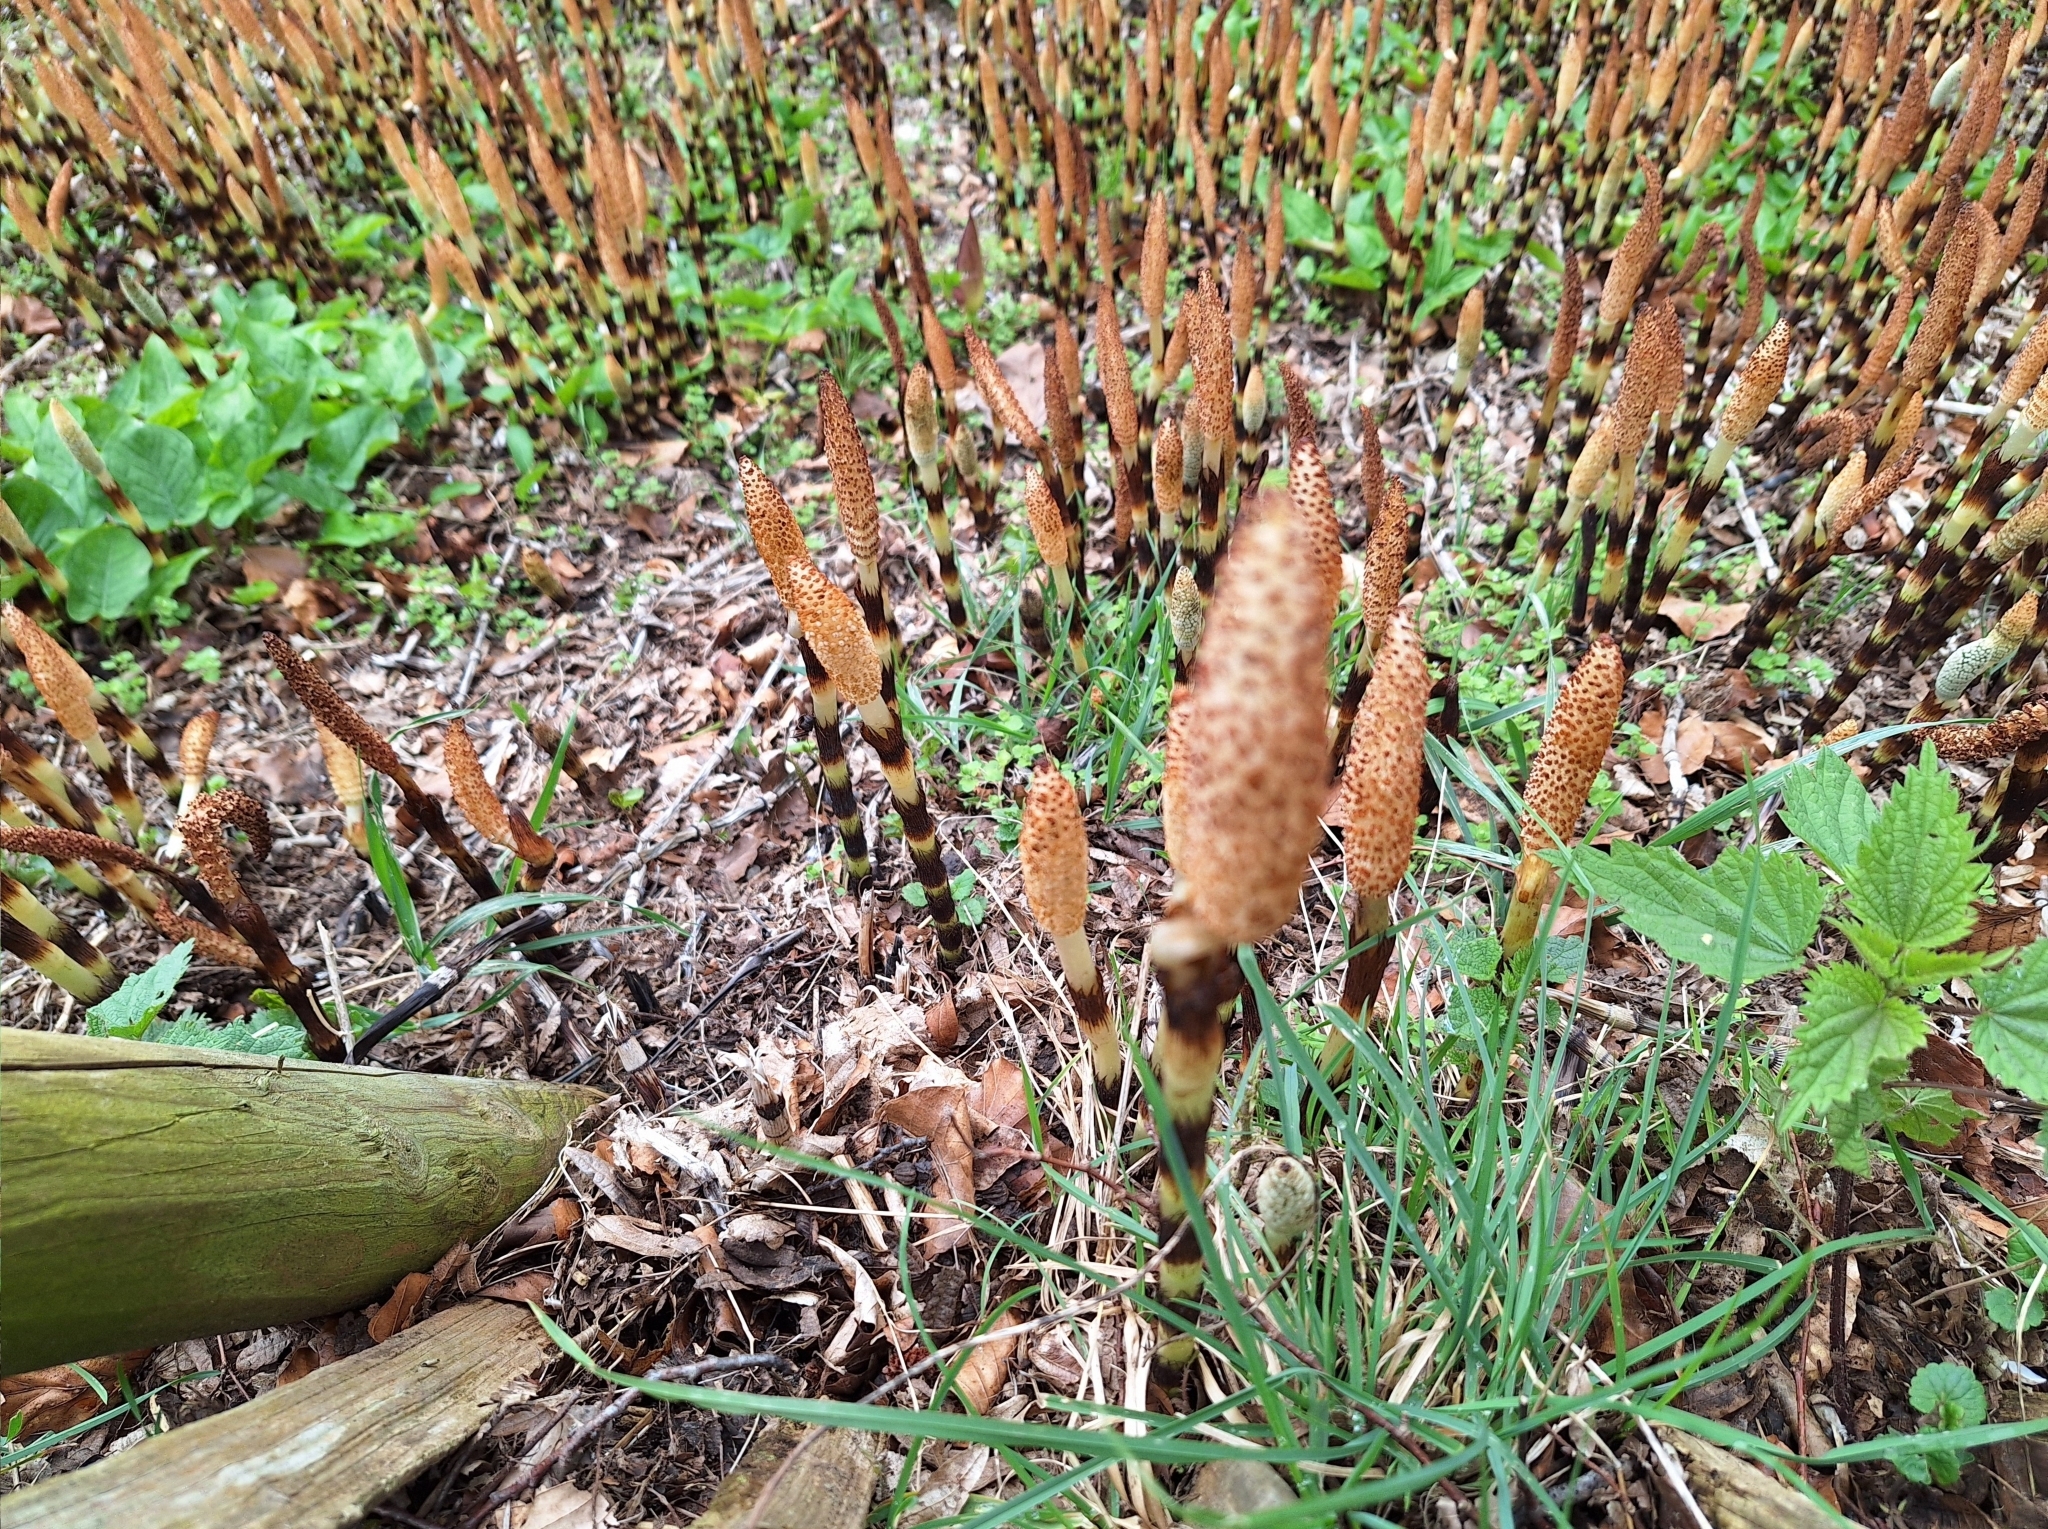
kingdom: Plantae
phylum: Tracheophyta
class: Polypodiopsida
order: Equisetales
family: Equisetaceae
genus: Equisetum
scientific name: Equisetum telmateia
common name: Great horsetail
